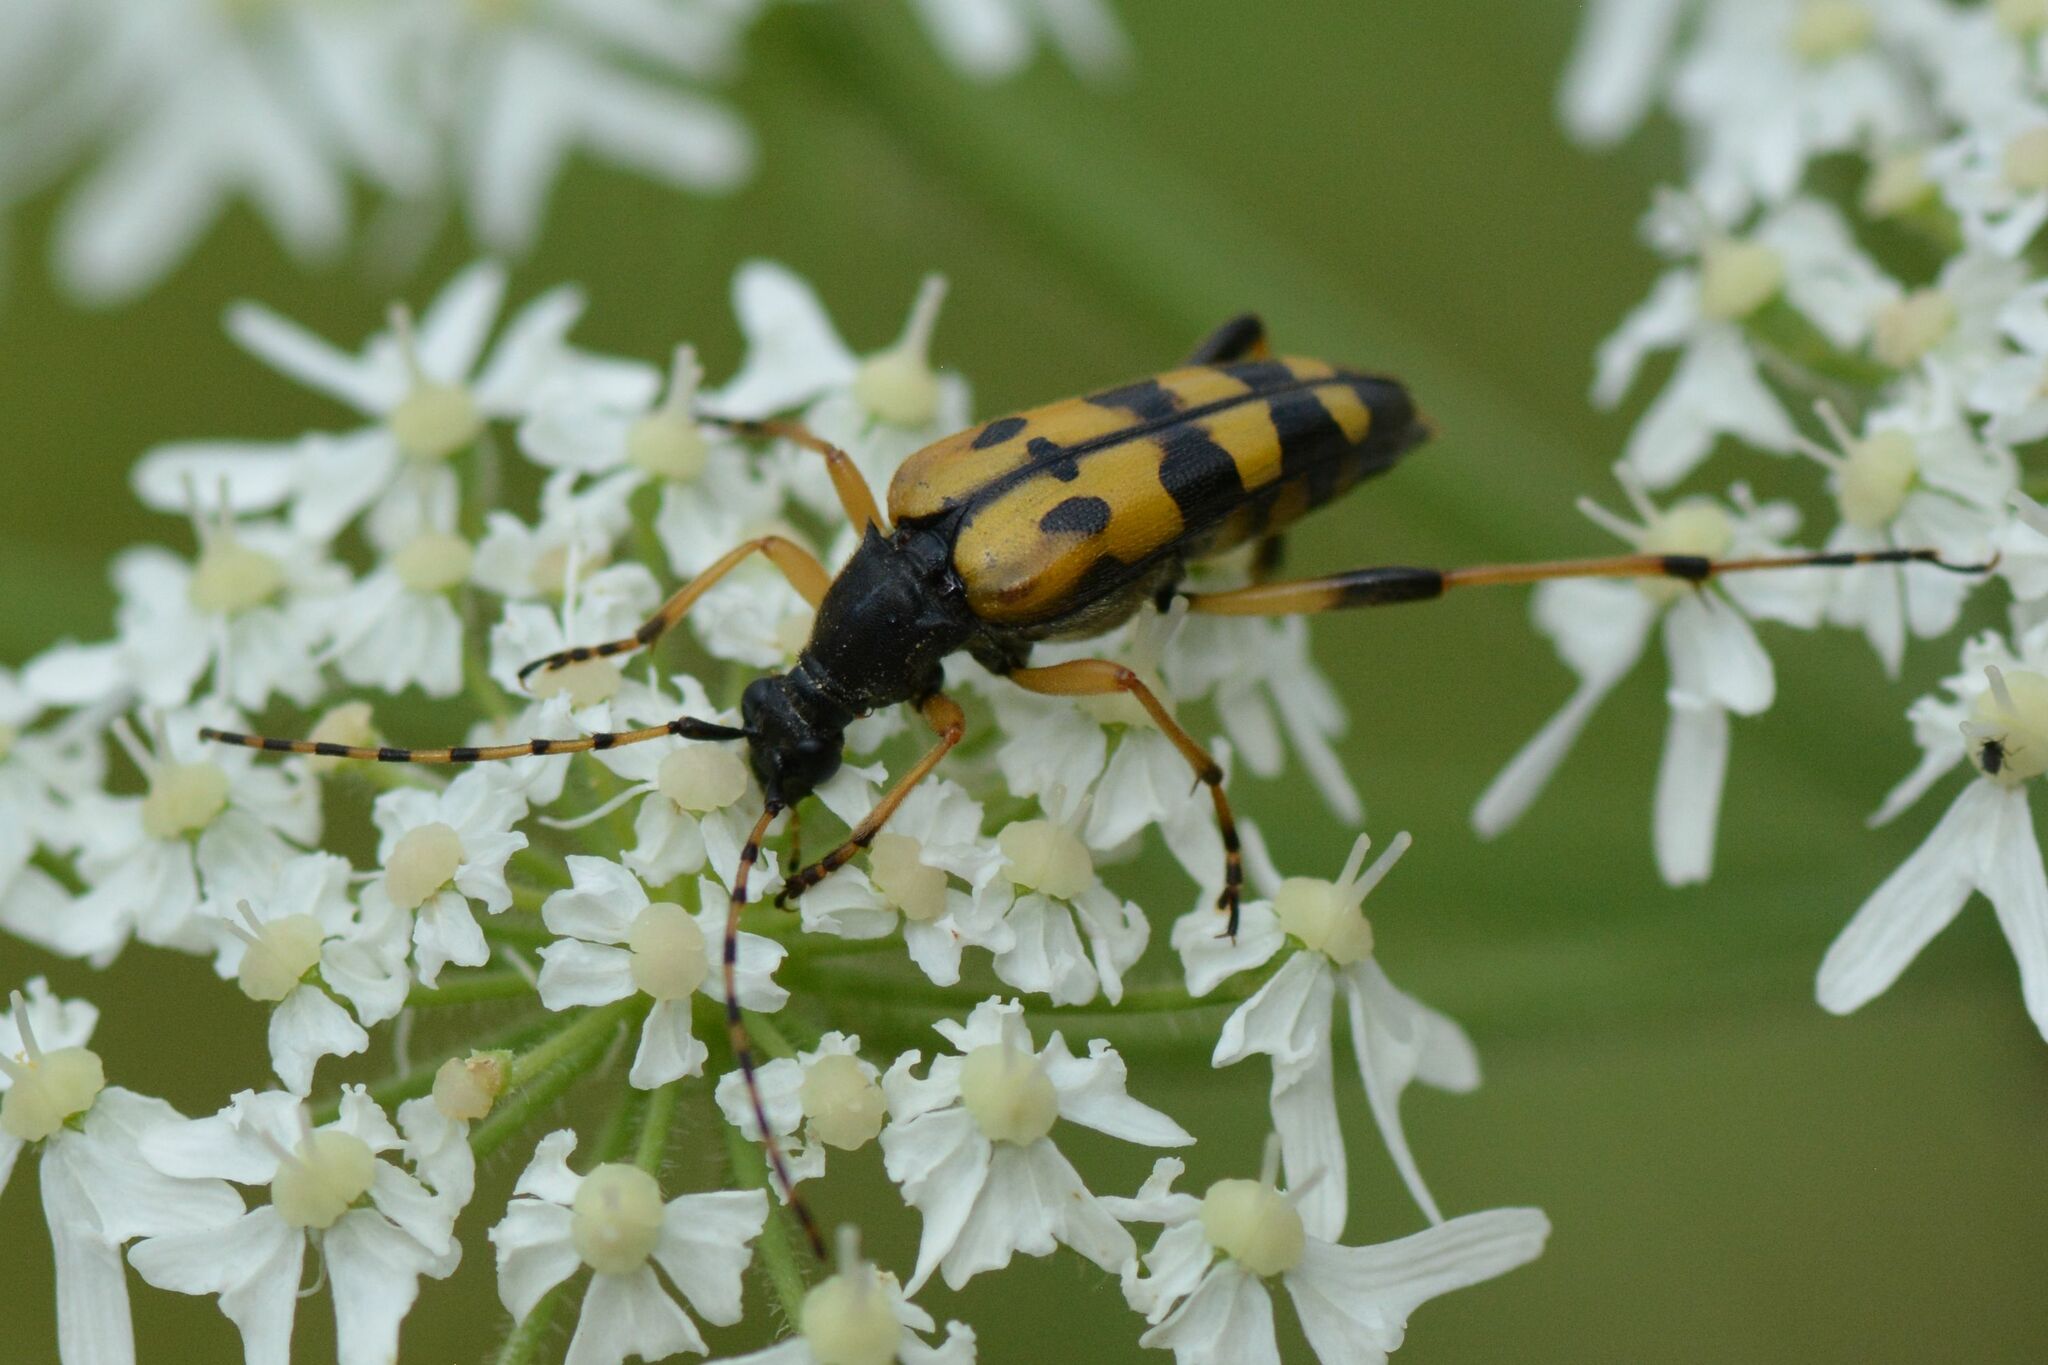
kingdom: Animalia
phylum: Arthropoda
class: Insecta
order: Coleoptera
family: Cerambycidae
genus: Rutpela
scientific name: Rutpela maculata
